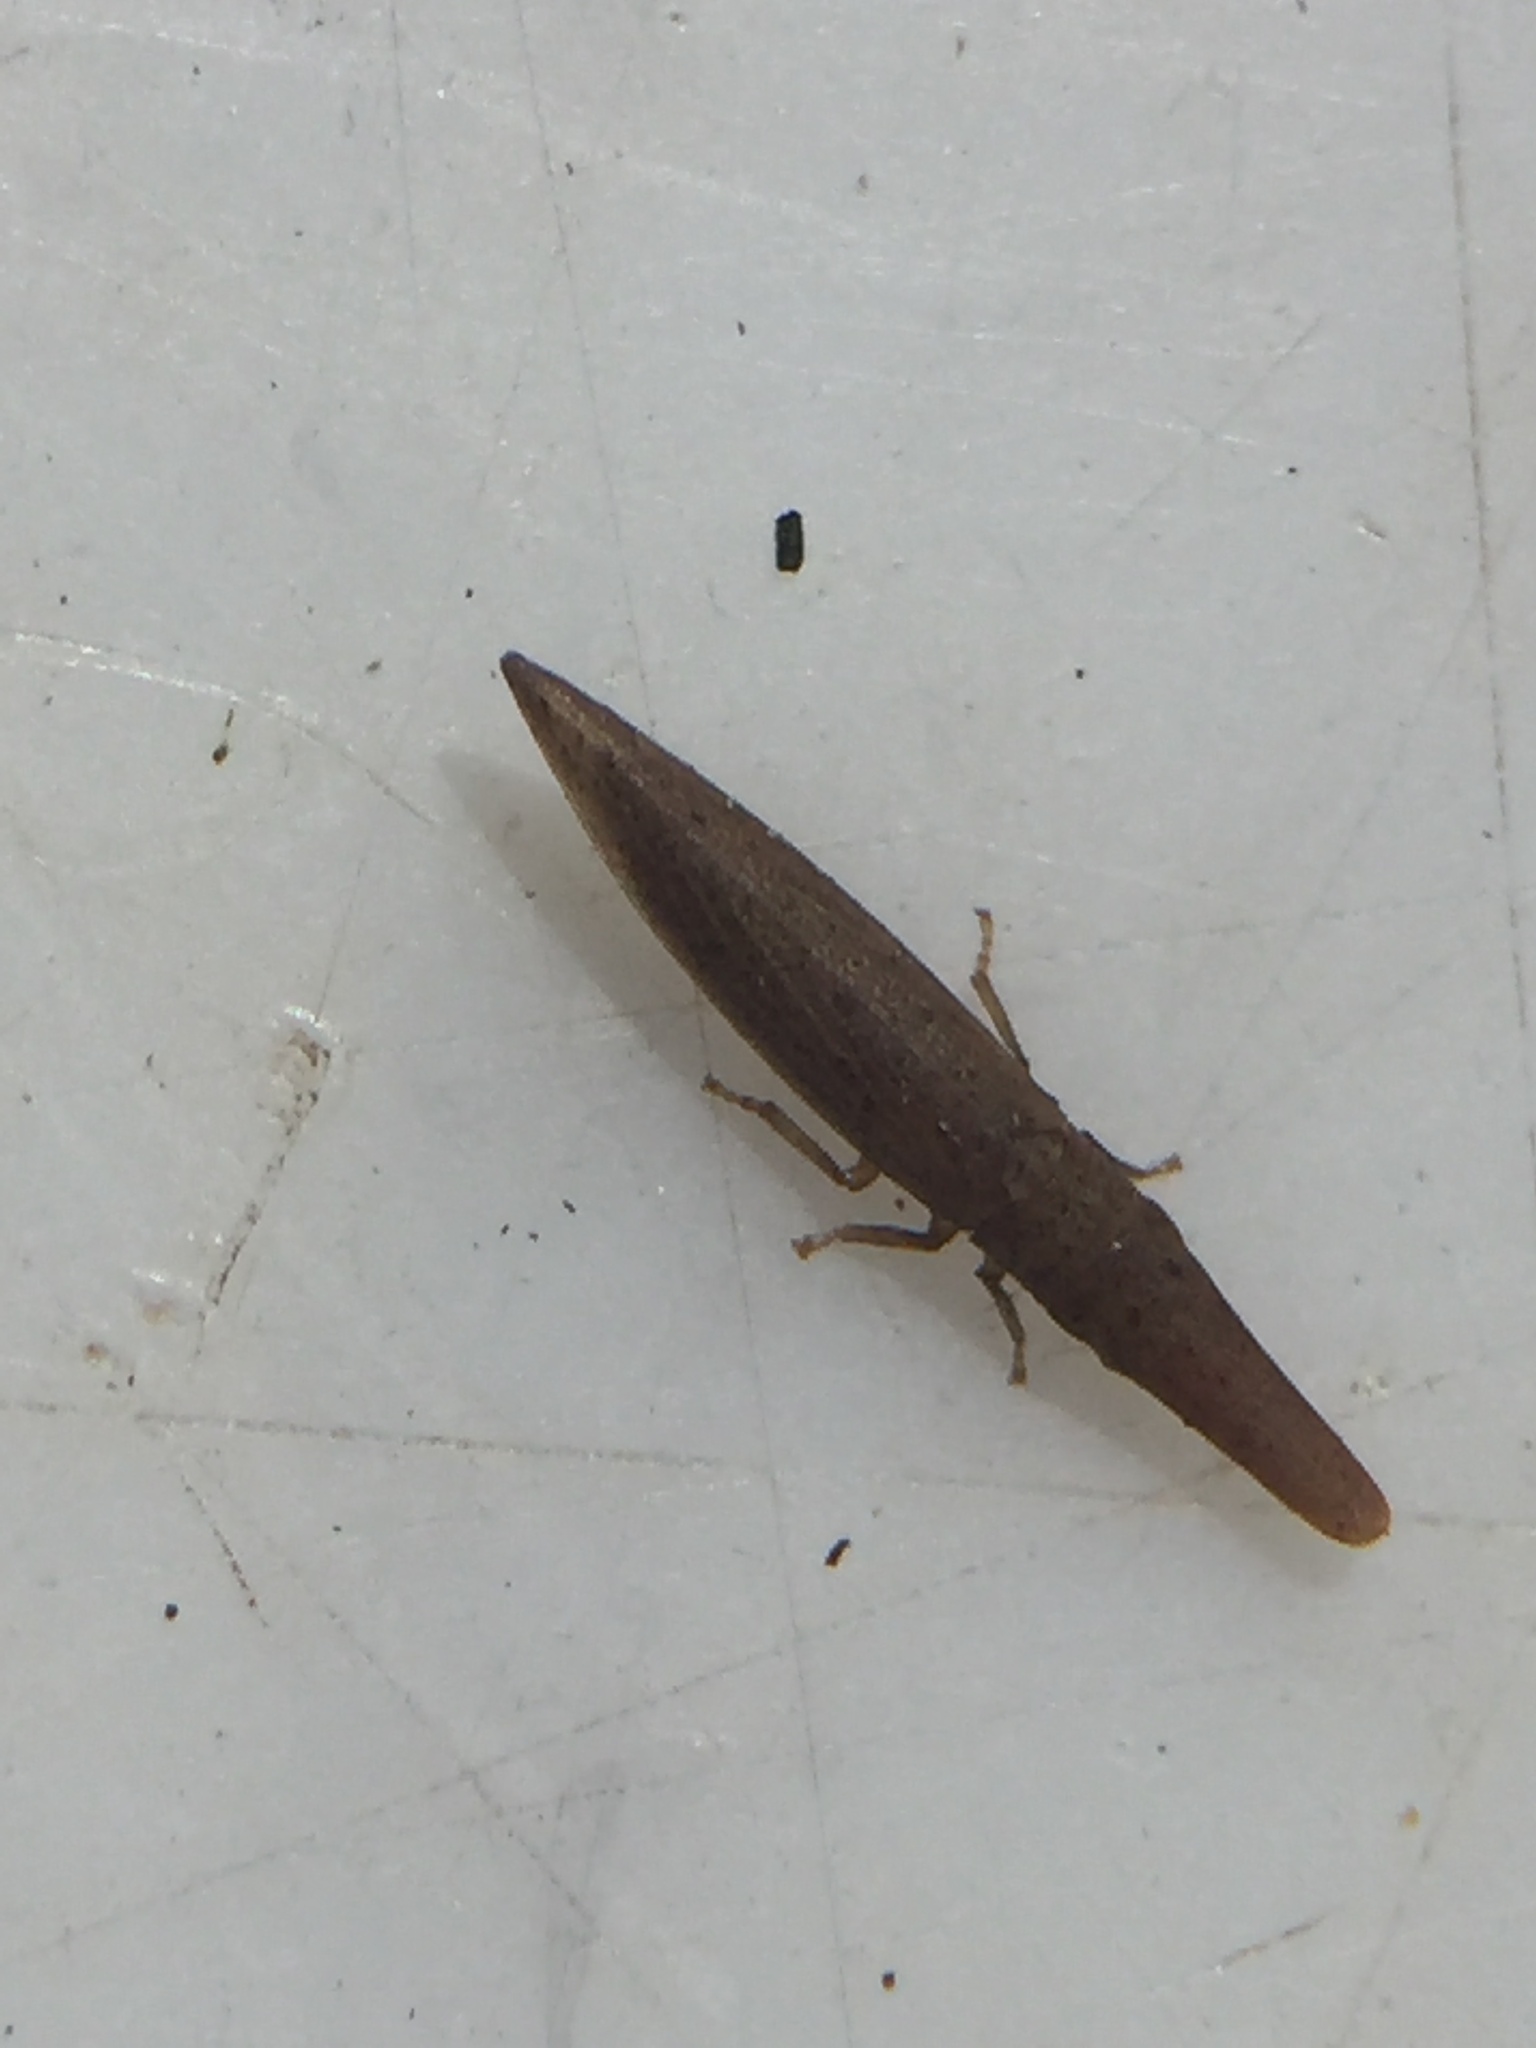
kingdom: Animalia
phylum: Arthropoda
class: Insecta
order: Hemiptera
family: Cicadellidae
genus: Paracephaleus
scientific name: Paracephaleus hudsoni
